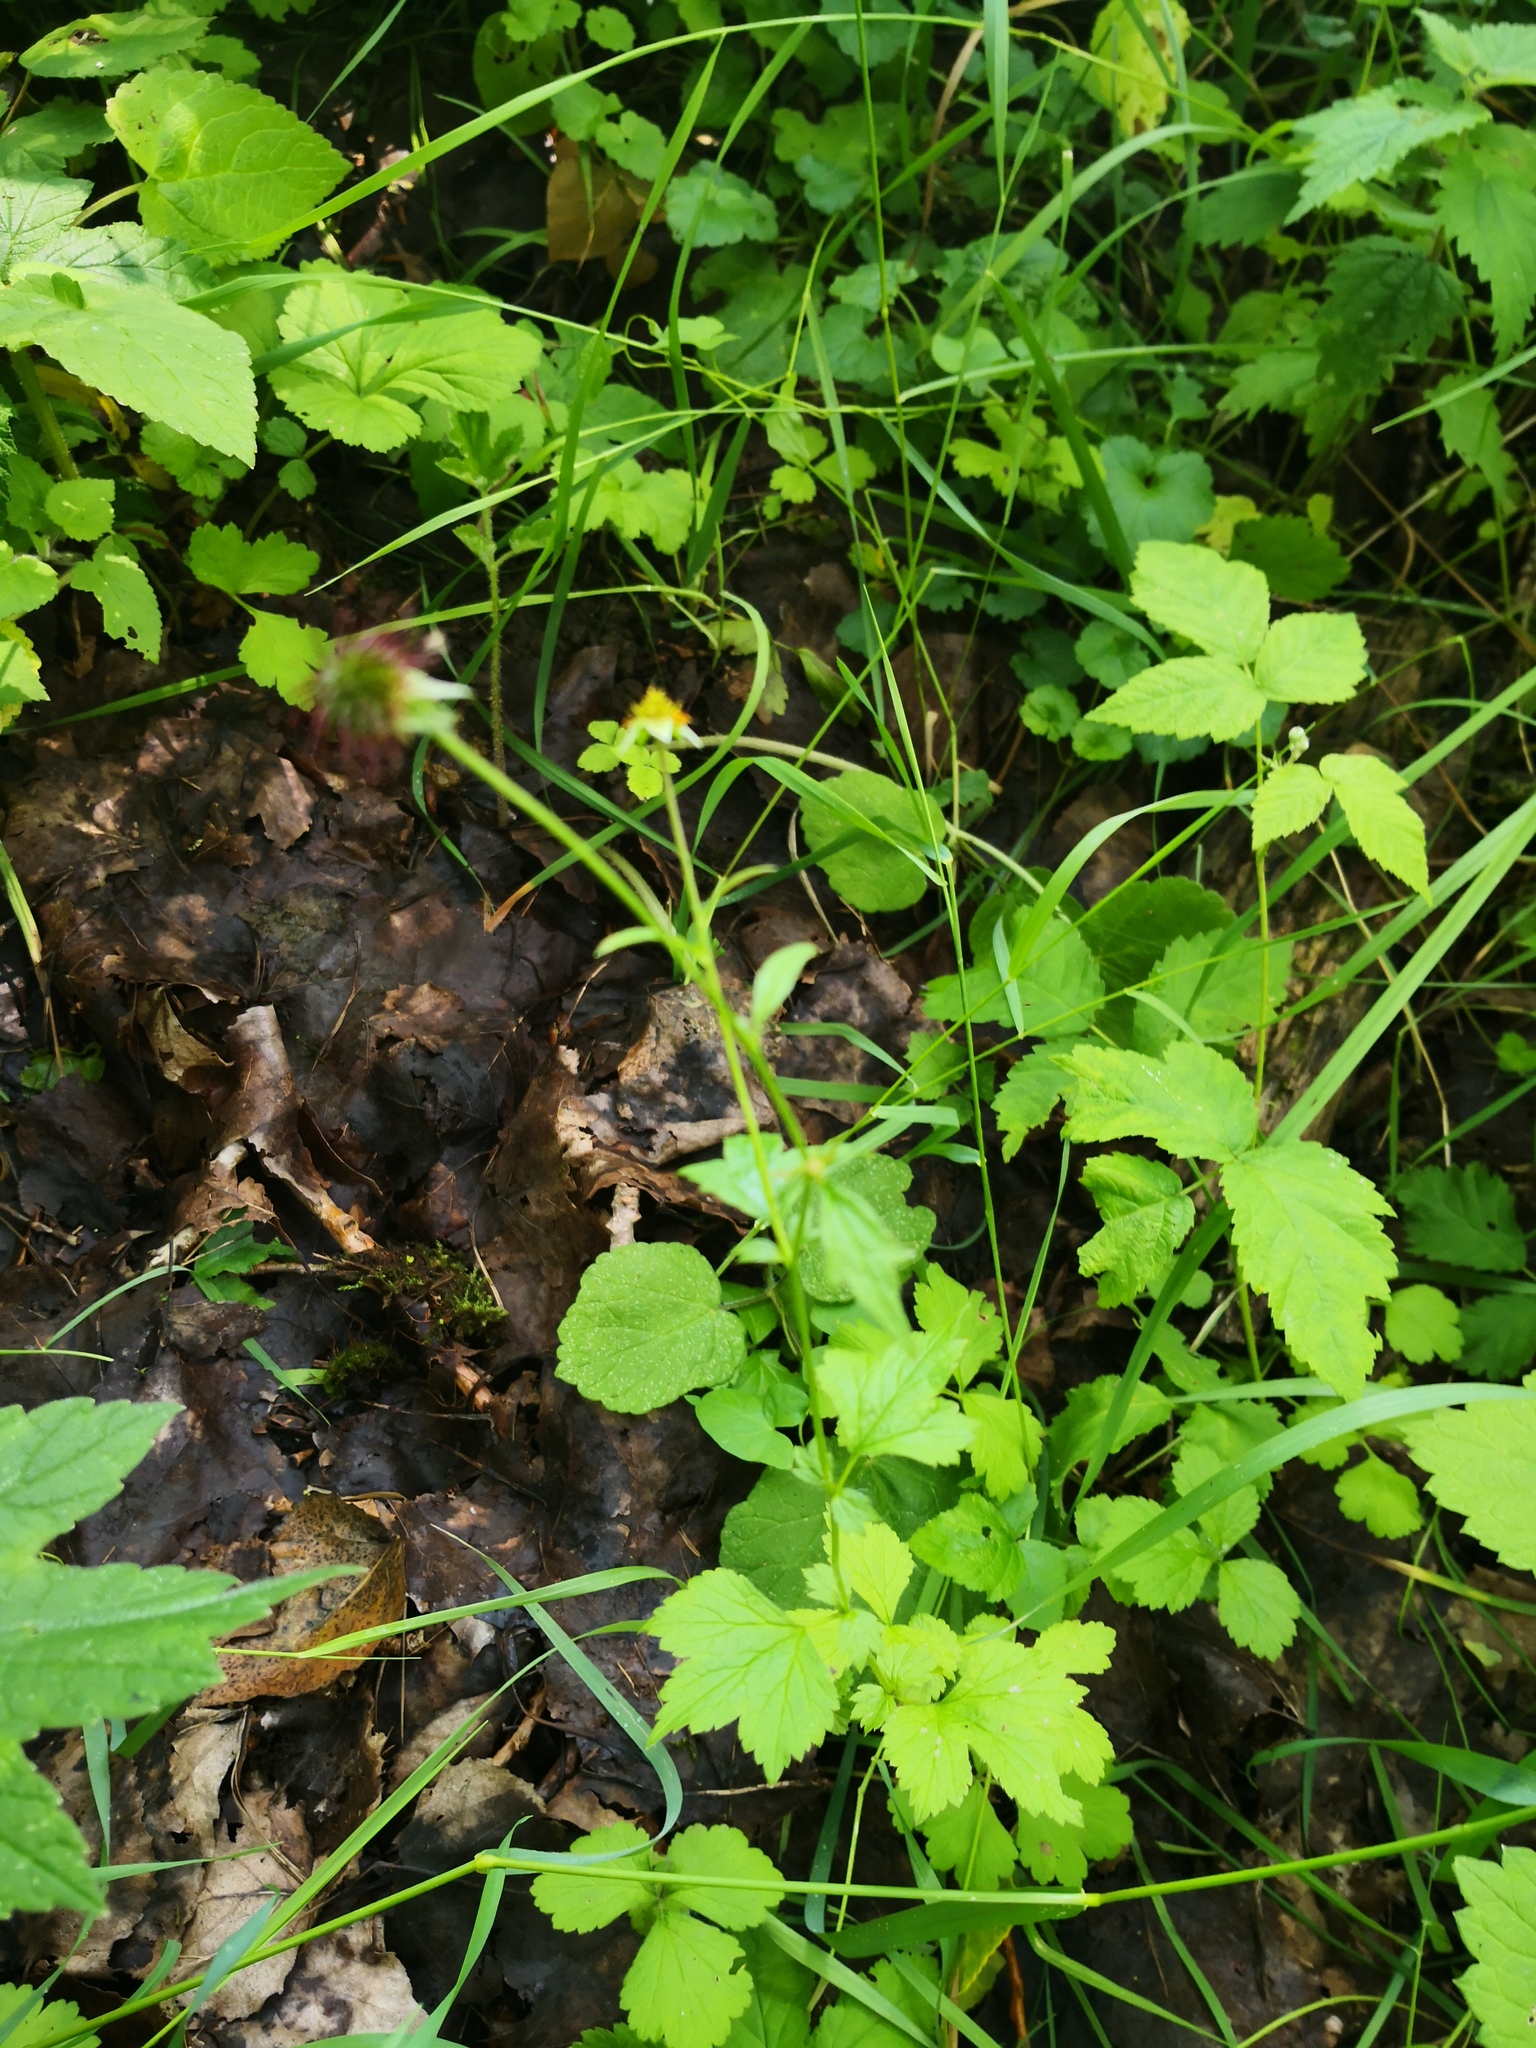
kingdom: Plantae
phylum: Tracheophyta
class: Magnoliopsida
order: Rosales
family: Rosaceae
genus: Geum
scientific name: Geum urbanum
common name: Wood avens
